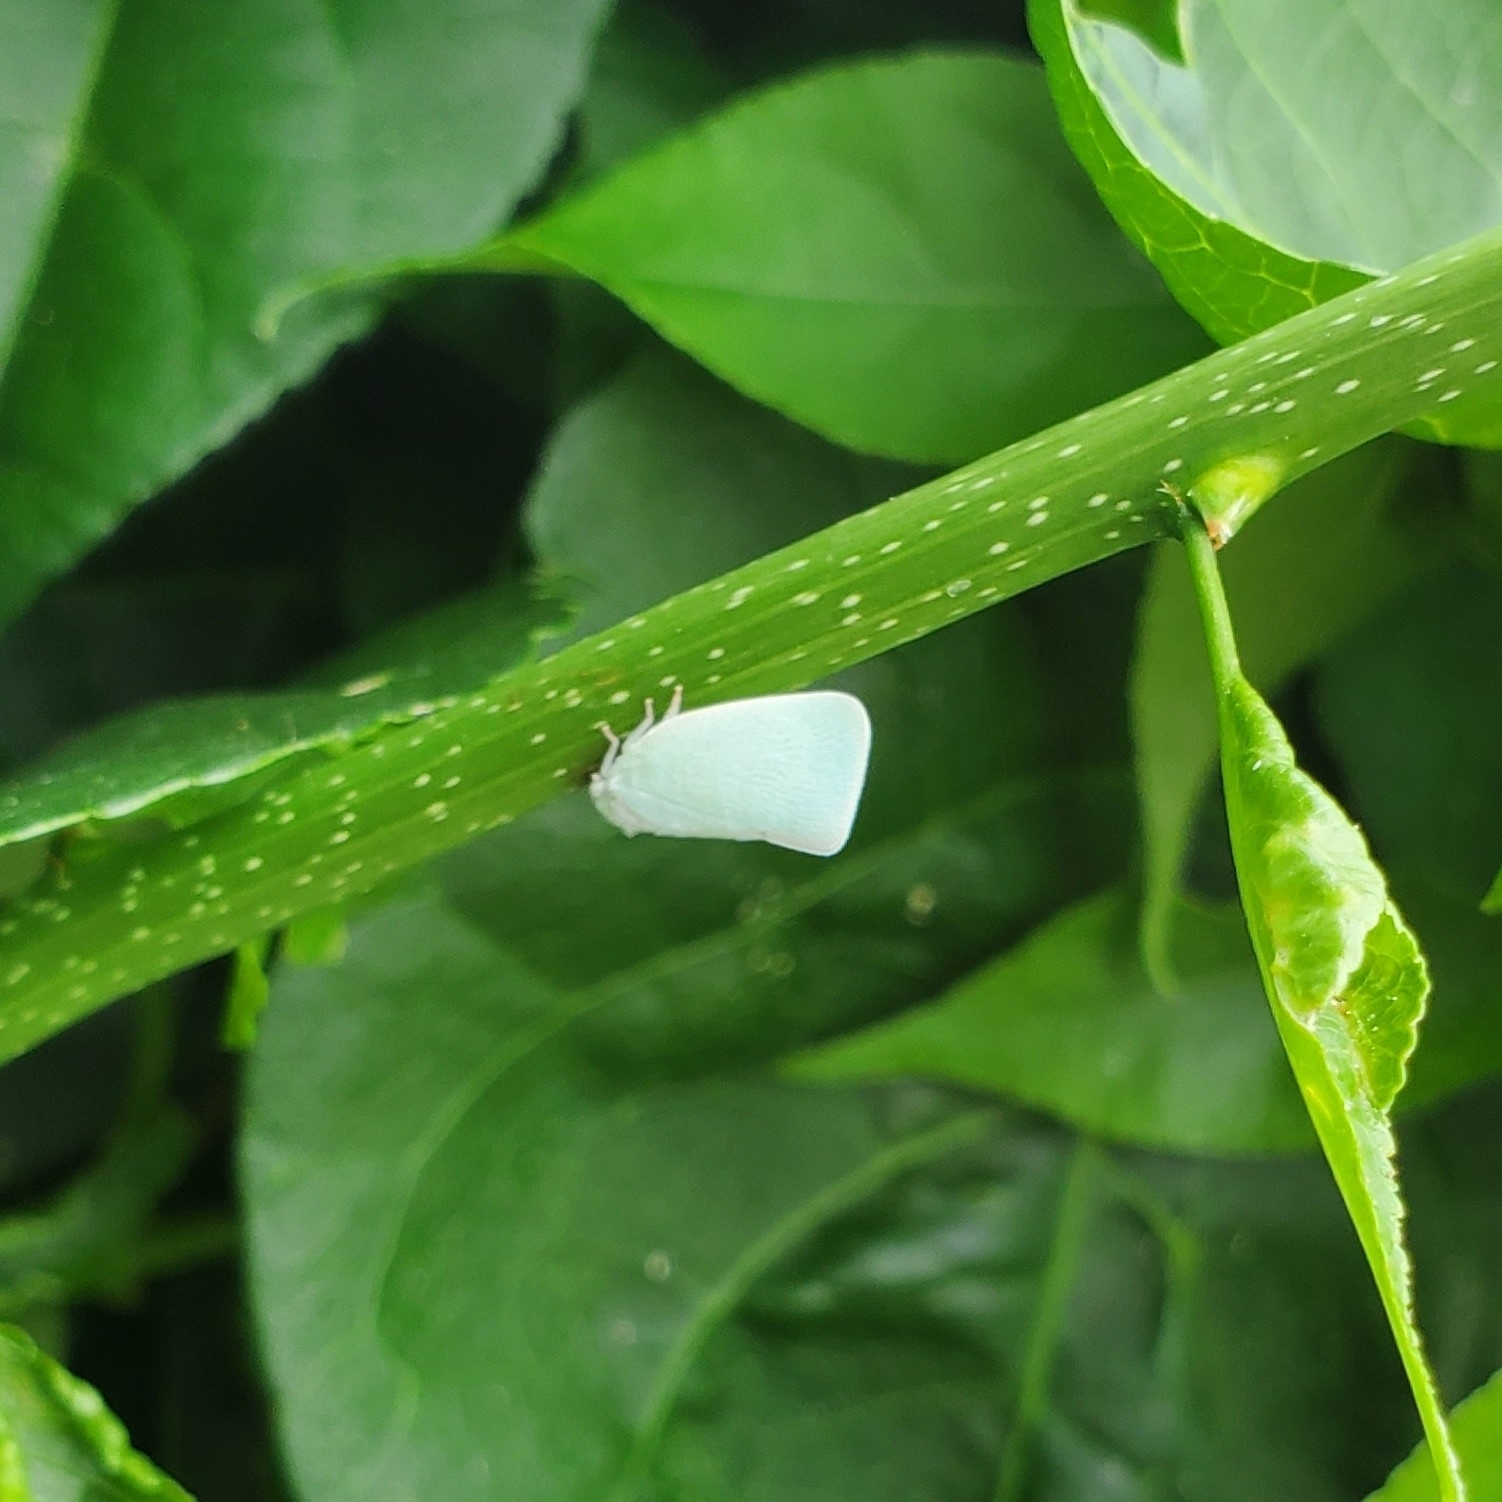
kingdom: Animalia
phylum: Arthropoda
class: Insecta
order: Hemiptera
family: Flatidae
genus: Flatormenis
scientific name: Flatormenis proxima
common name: Northern flatid planthopper
